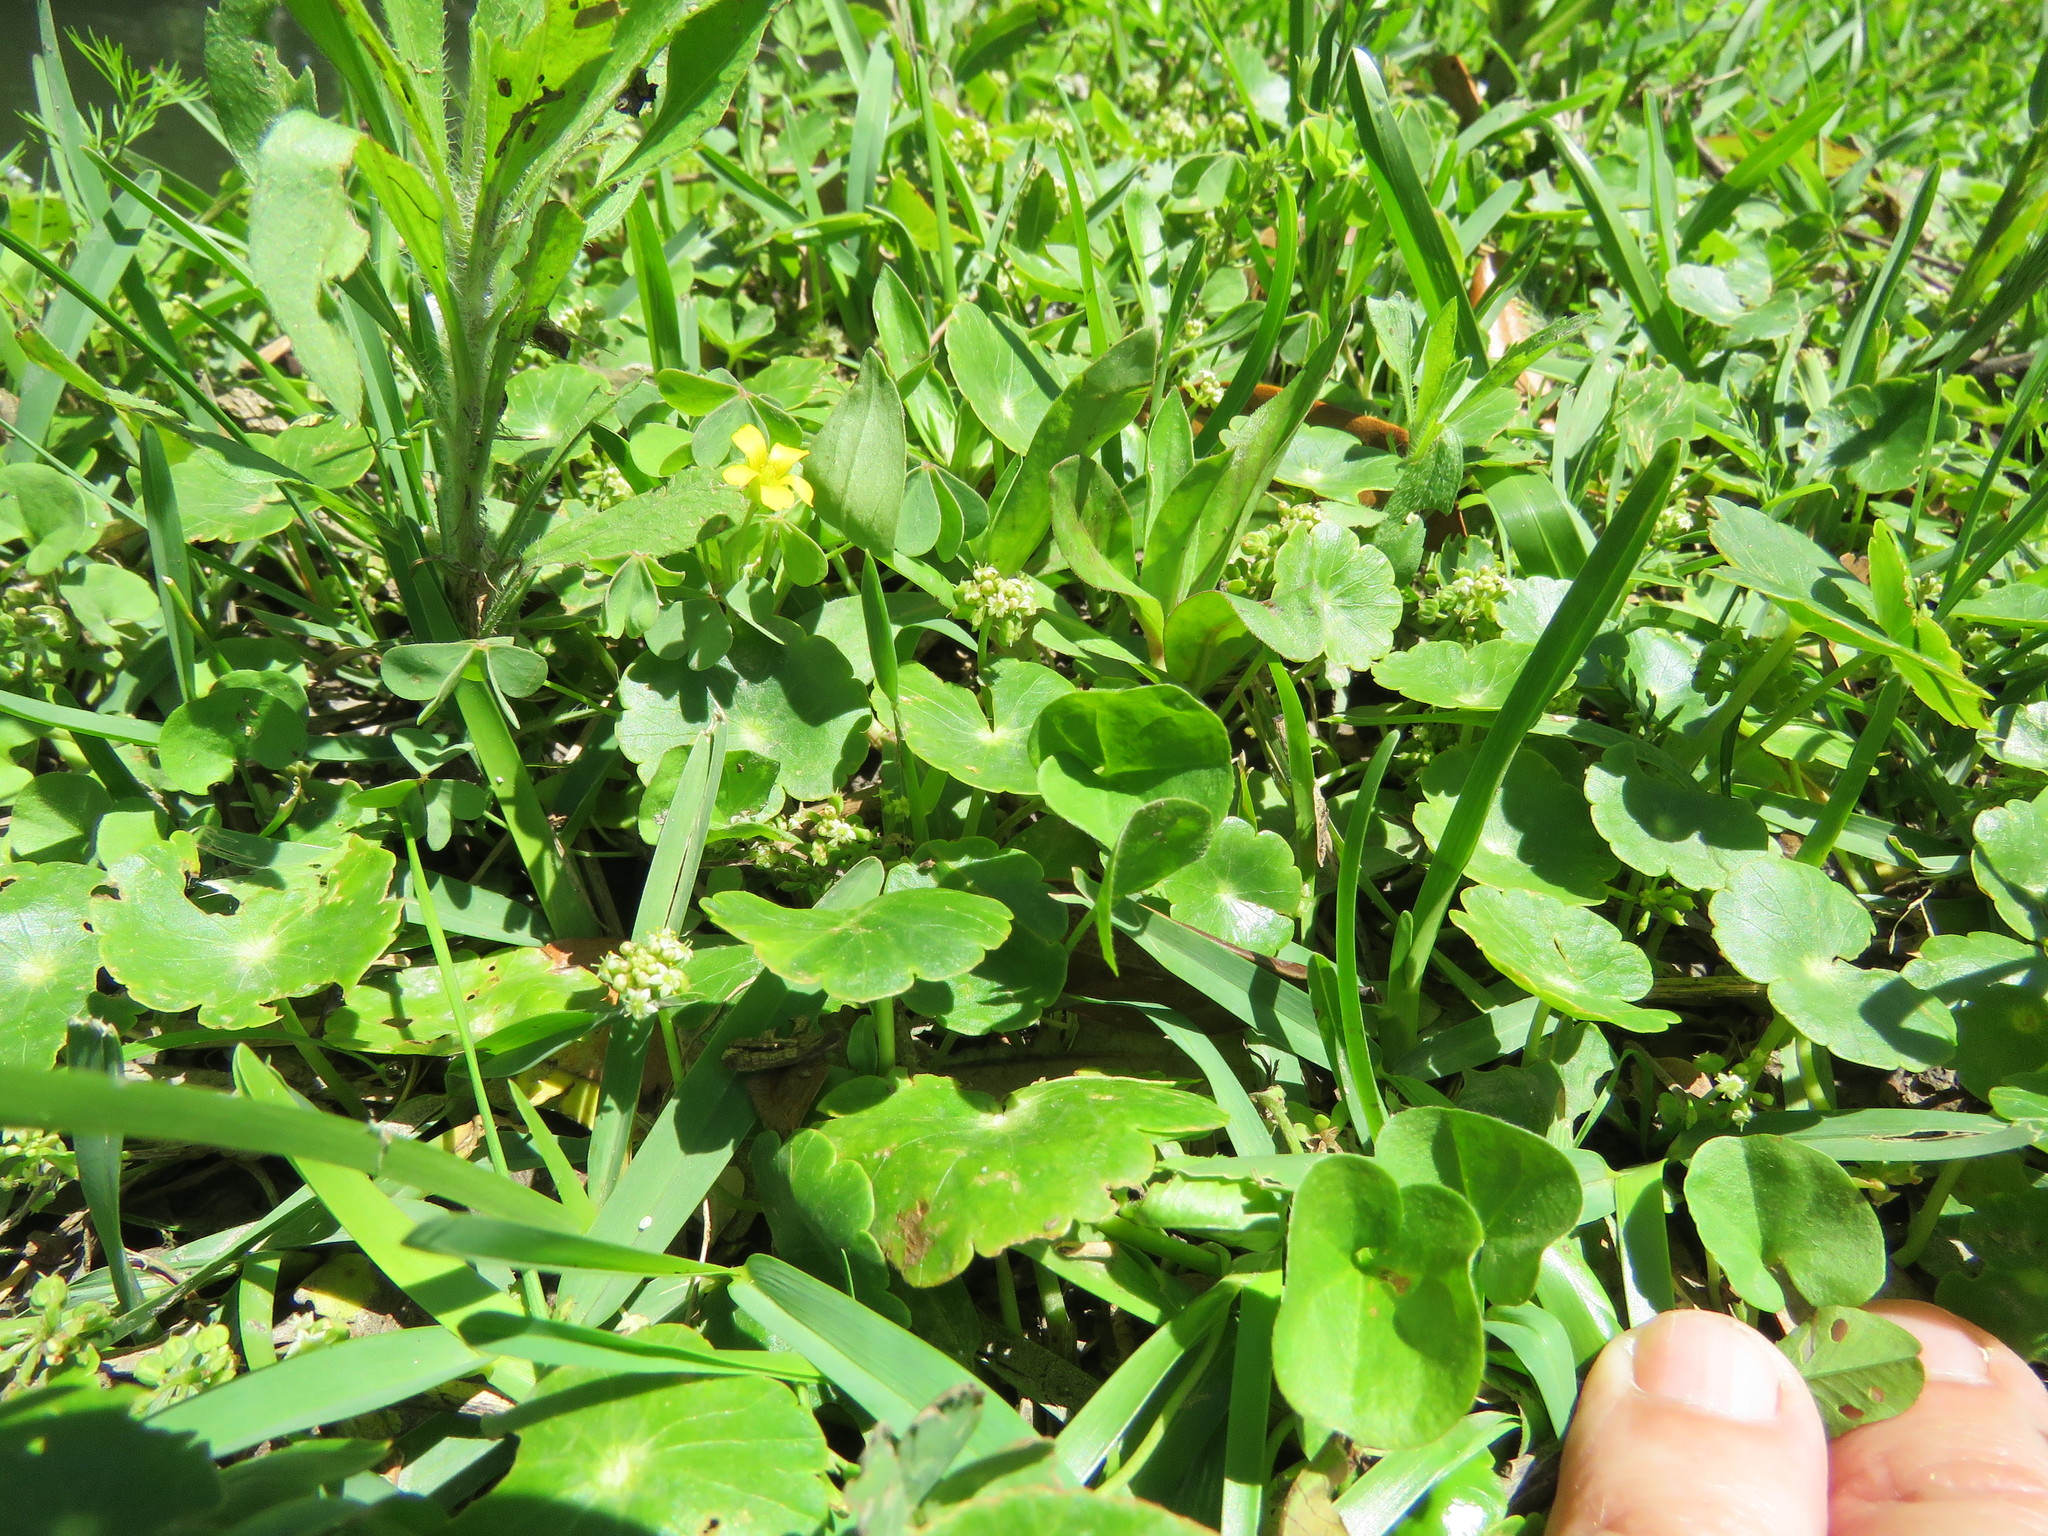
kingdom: Plantae
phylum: Tracheophyta
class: Magnoliopsida
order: Apiales
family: Araliaceae
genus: Hydrocotyle
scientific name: Hydrocotyle umbellata
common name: Water pennywort
